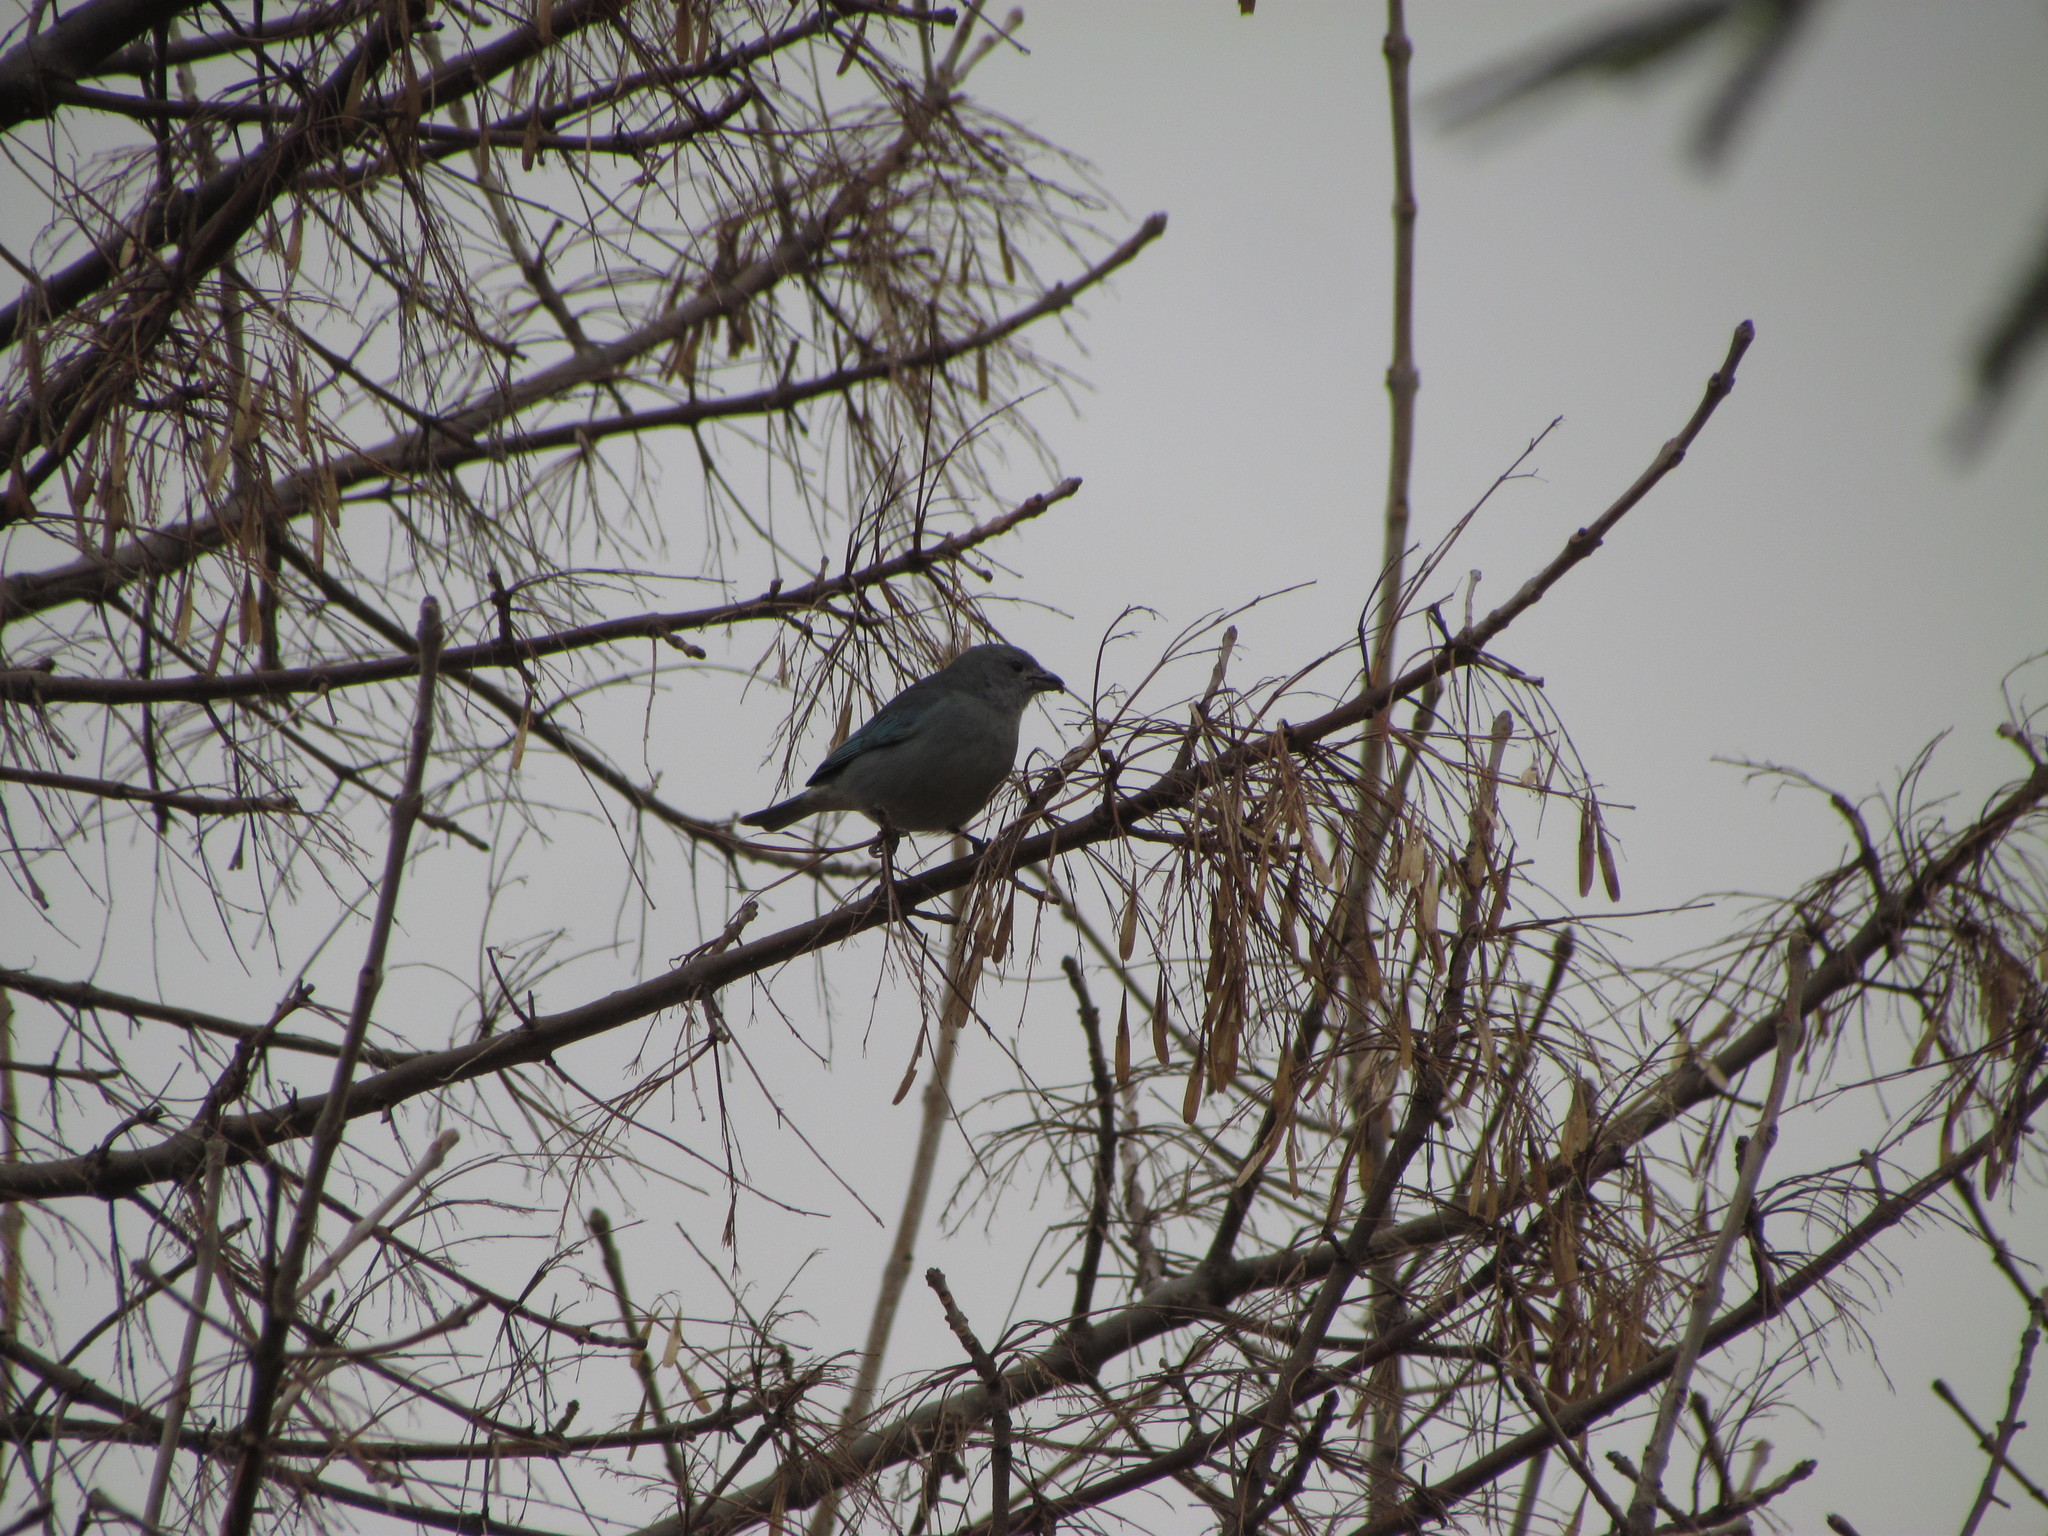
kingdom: Animalia
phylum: Chordata
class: Aves
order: Passeriformes
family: Thraupidae
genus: Thraupis
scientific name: Thraupis sayaca
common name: Sayaca tanager
